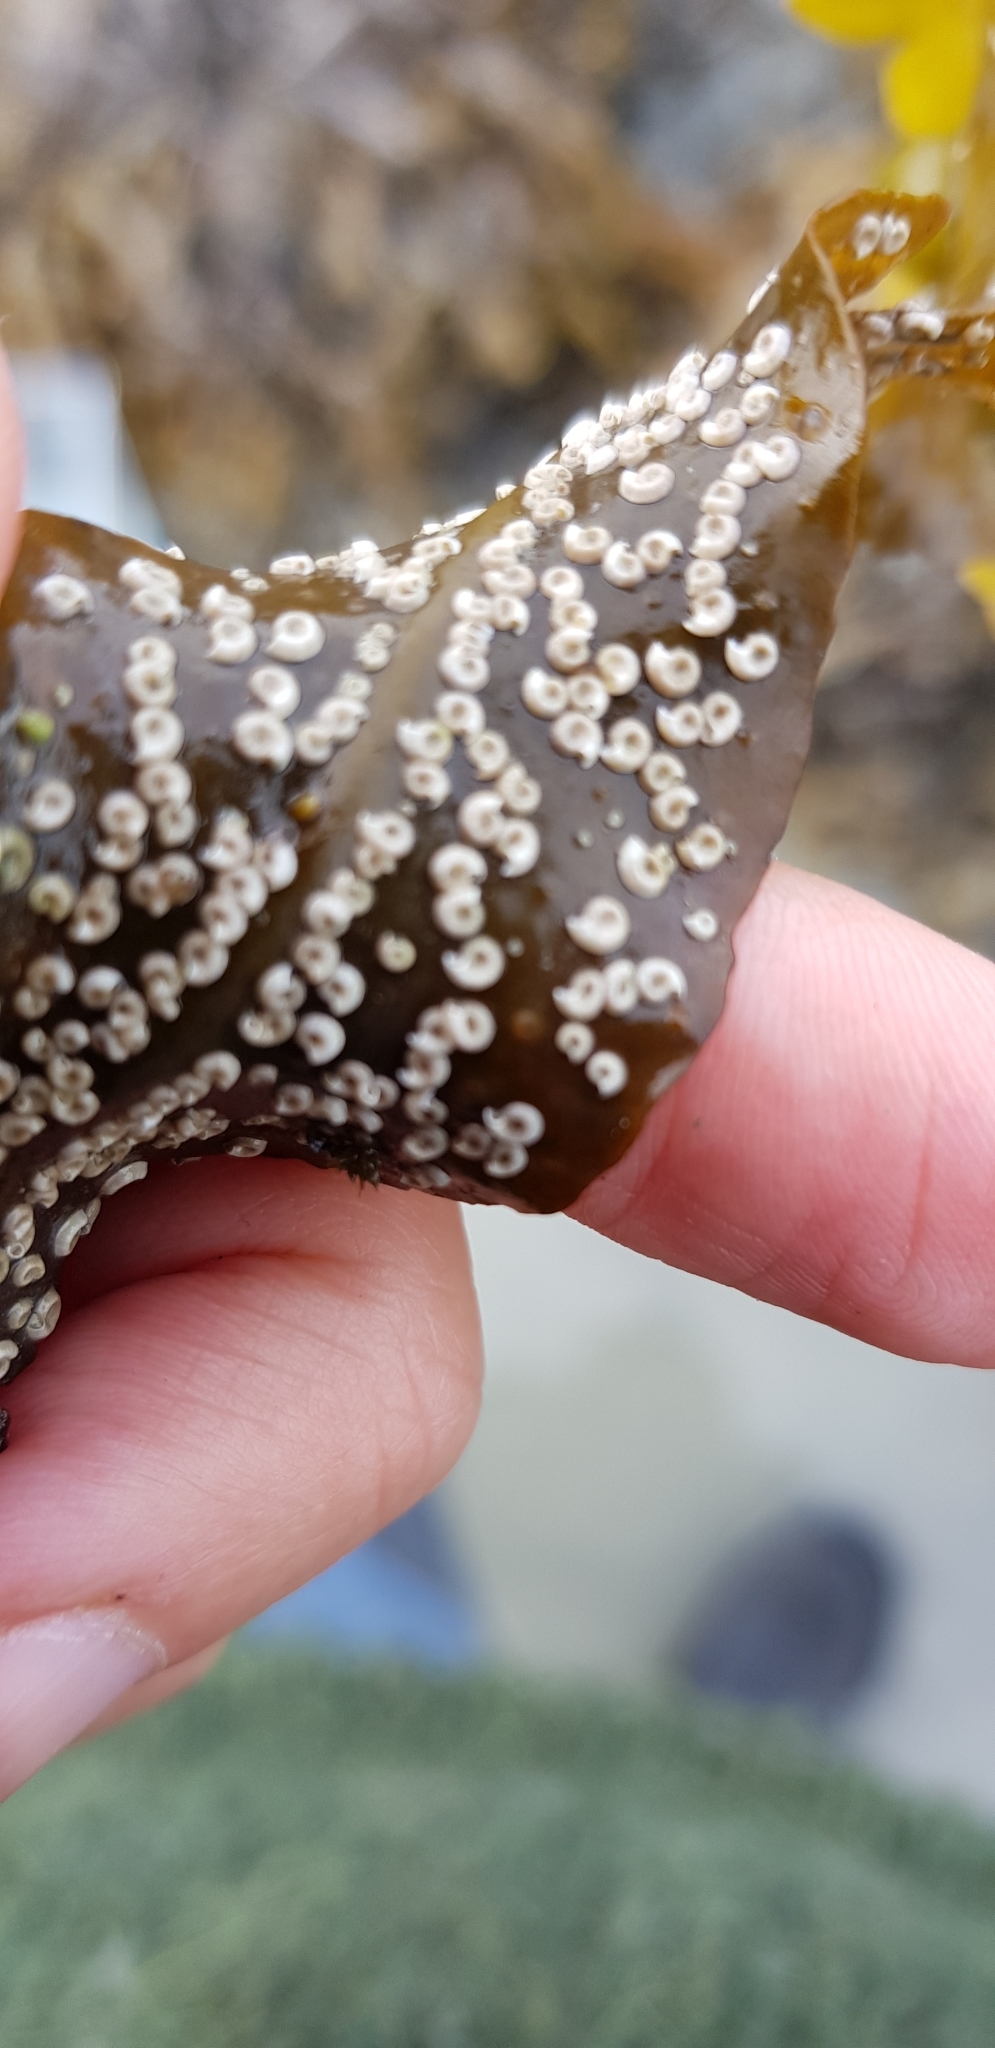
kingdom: Animalia
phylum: Annelida
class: Polychaeta
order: Sabellida
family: Serpulidae
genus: Spirorbis
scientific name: Spirorbis spirorbis
